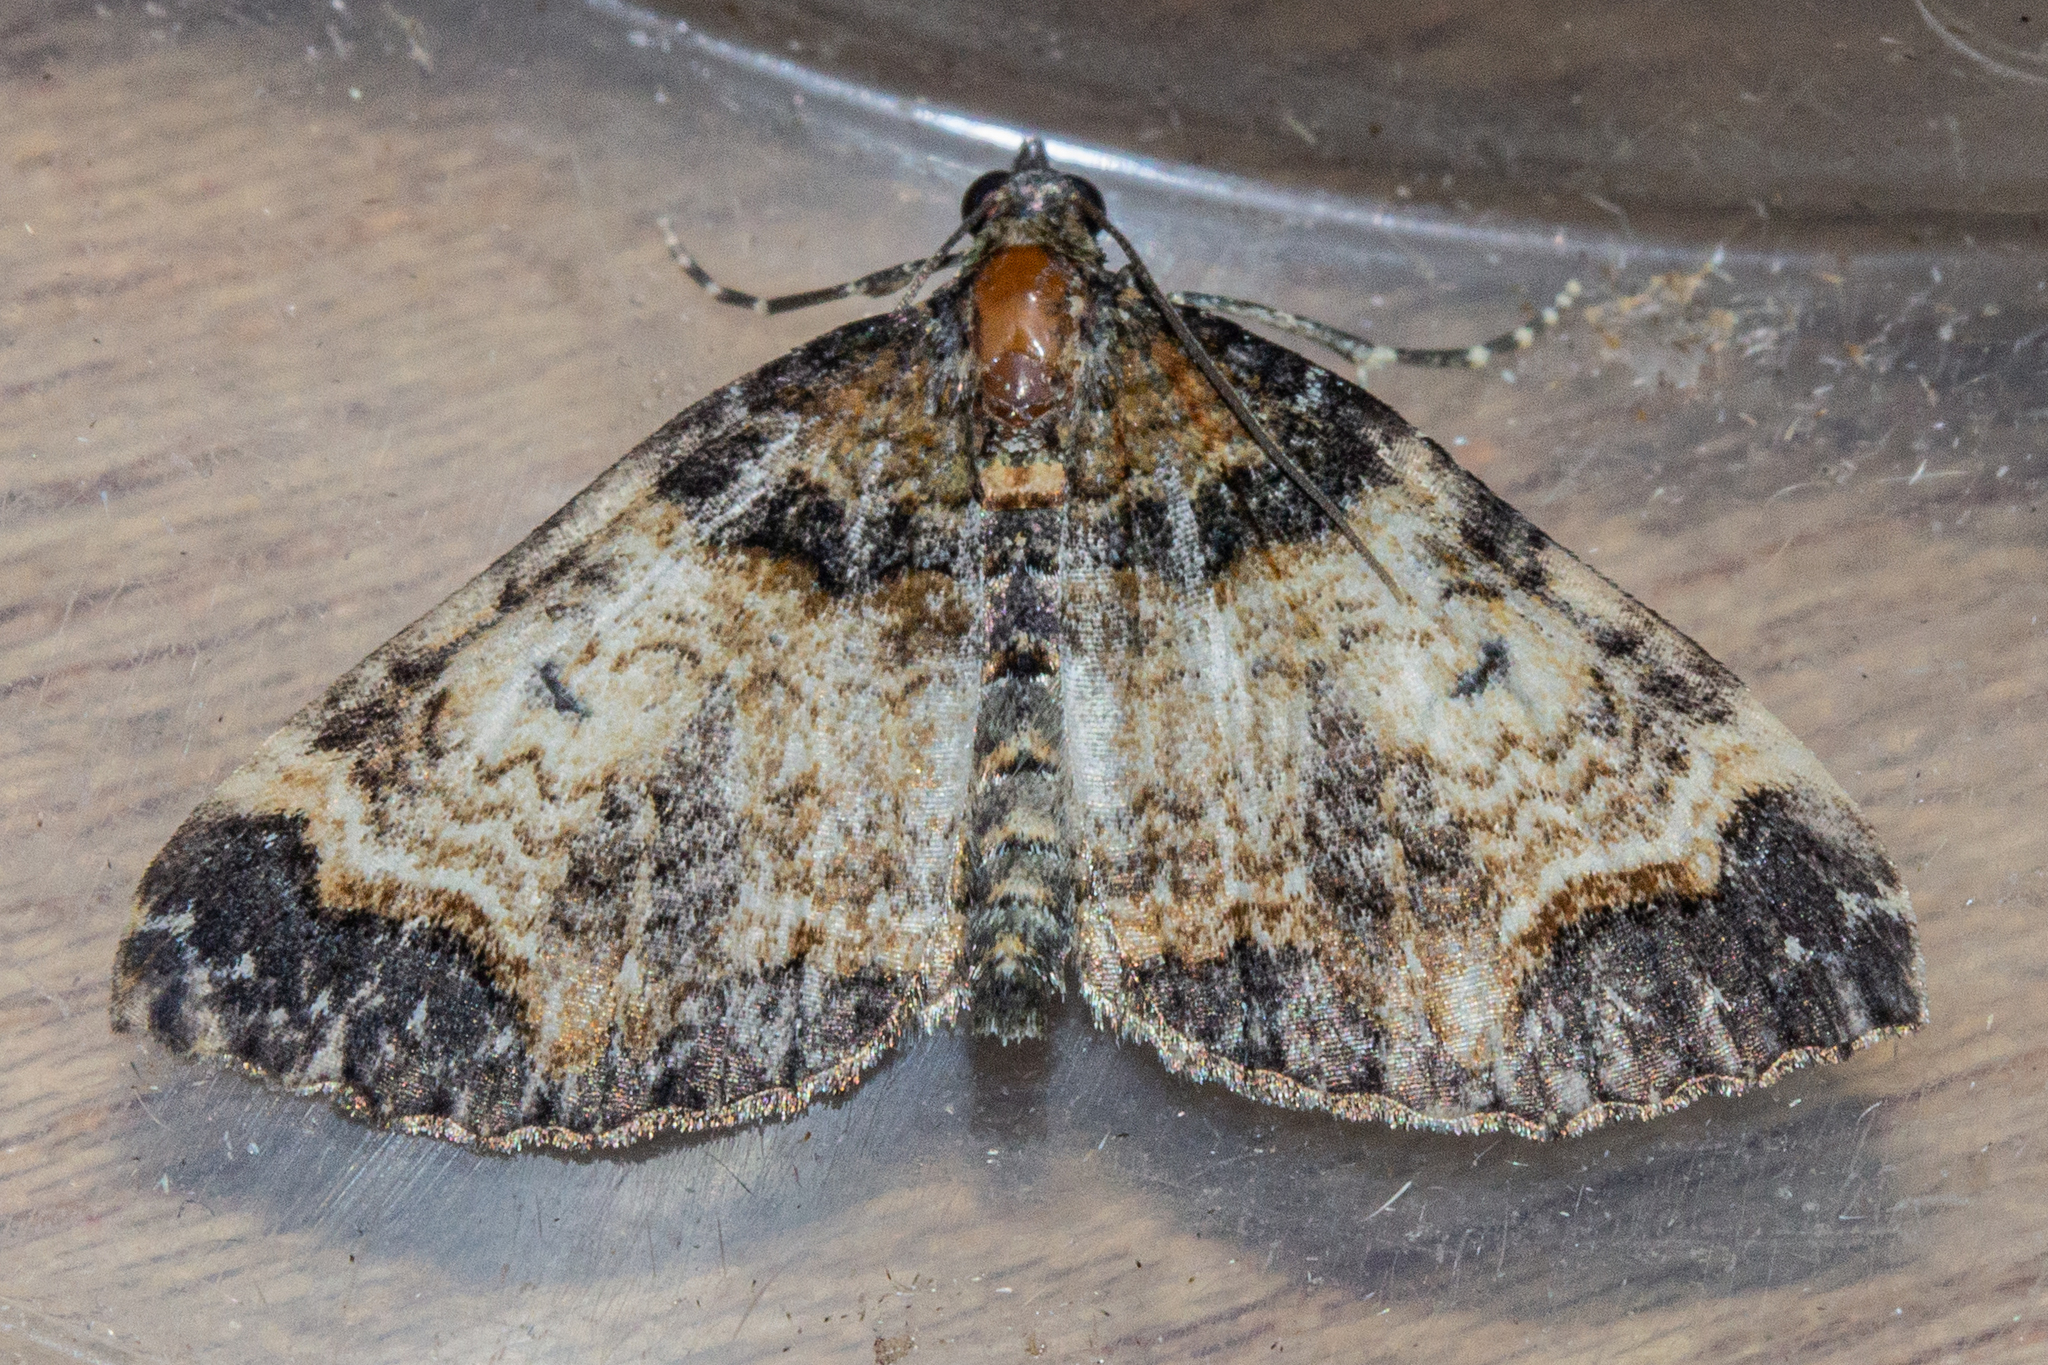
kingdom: Animalia
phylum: Arthropoda
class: Insecta
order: Lepidoptera
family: Geometridae
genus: Hydriomena
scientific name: Hydriomena arida
